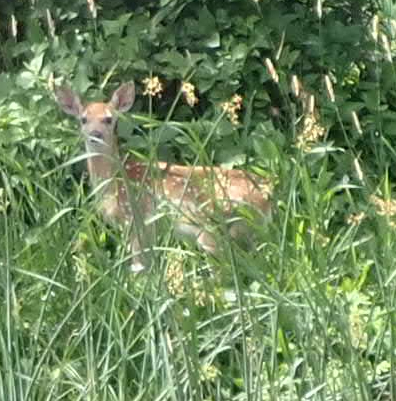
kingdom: Animalia
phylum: Chordata
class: Mammalia
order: Artiodactyla
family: Cervidae
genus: Odocoileus
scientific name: Odocoileus virginianus
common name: White-tailed deer
